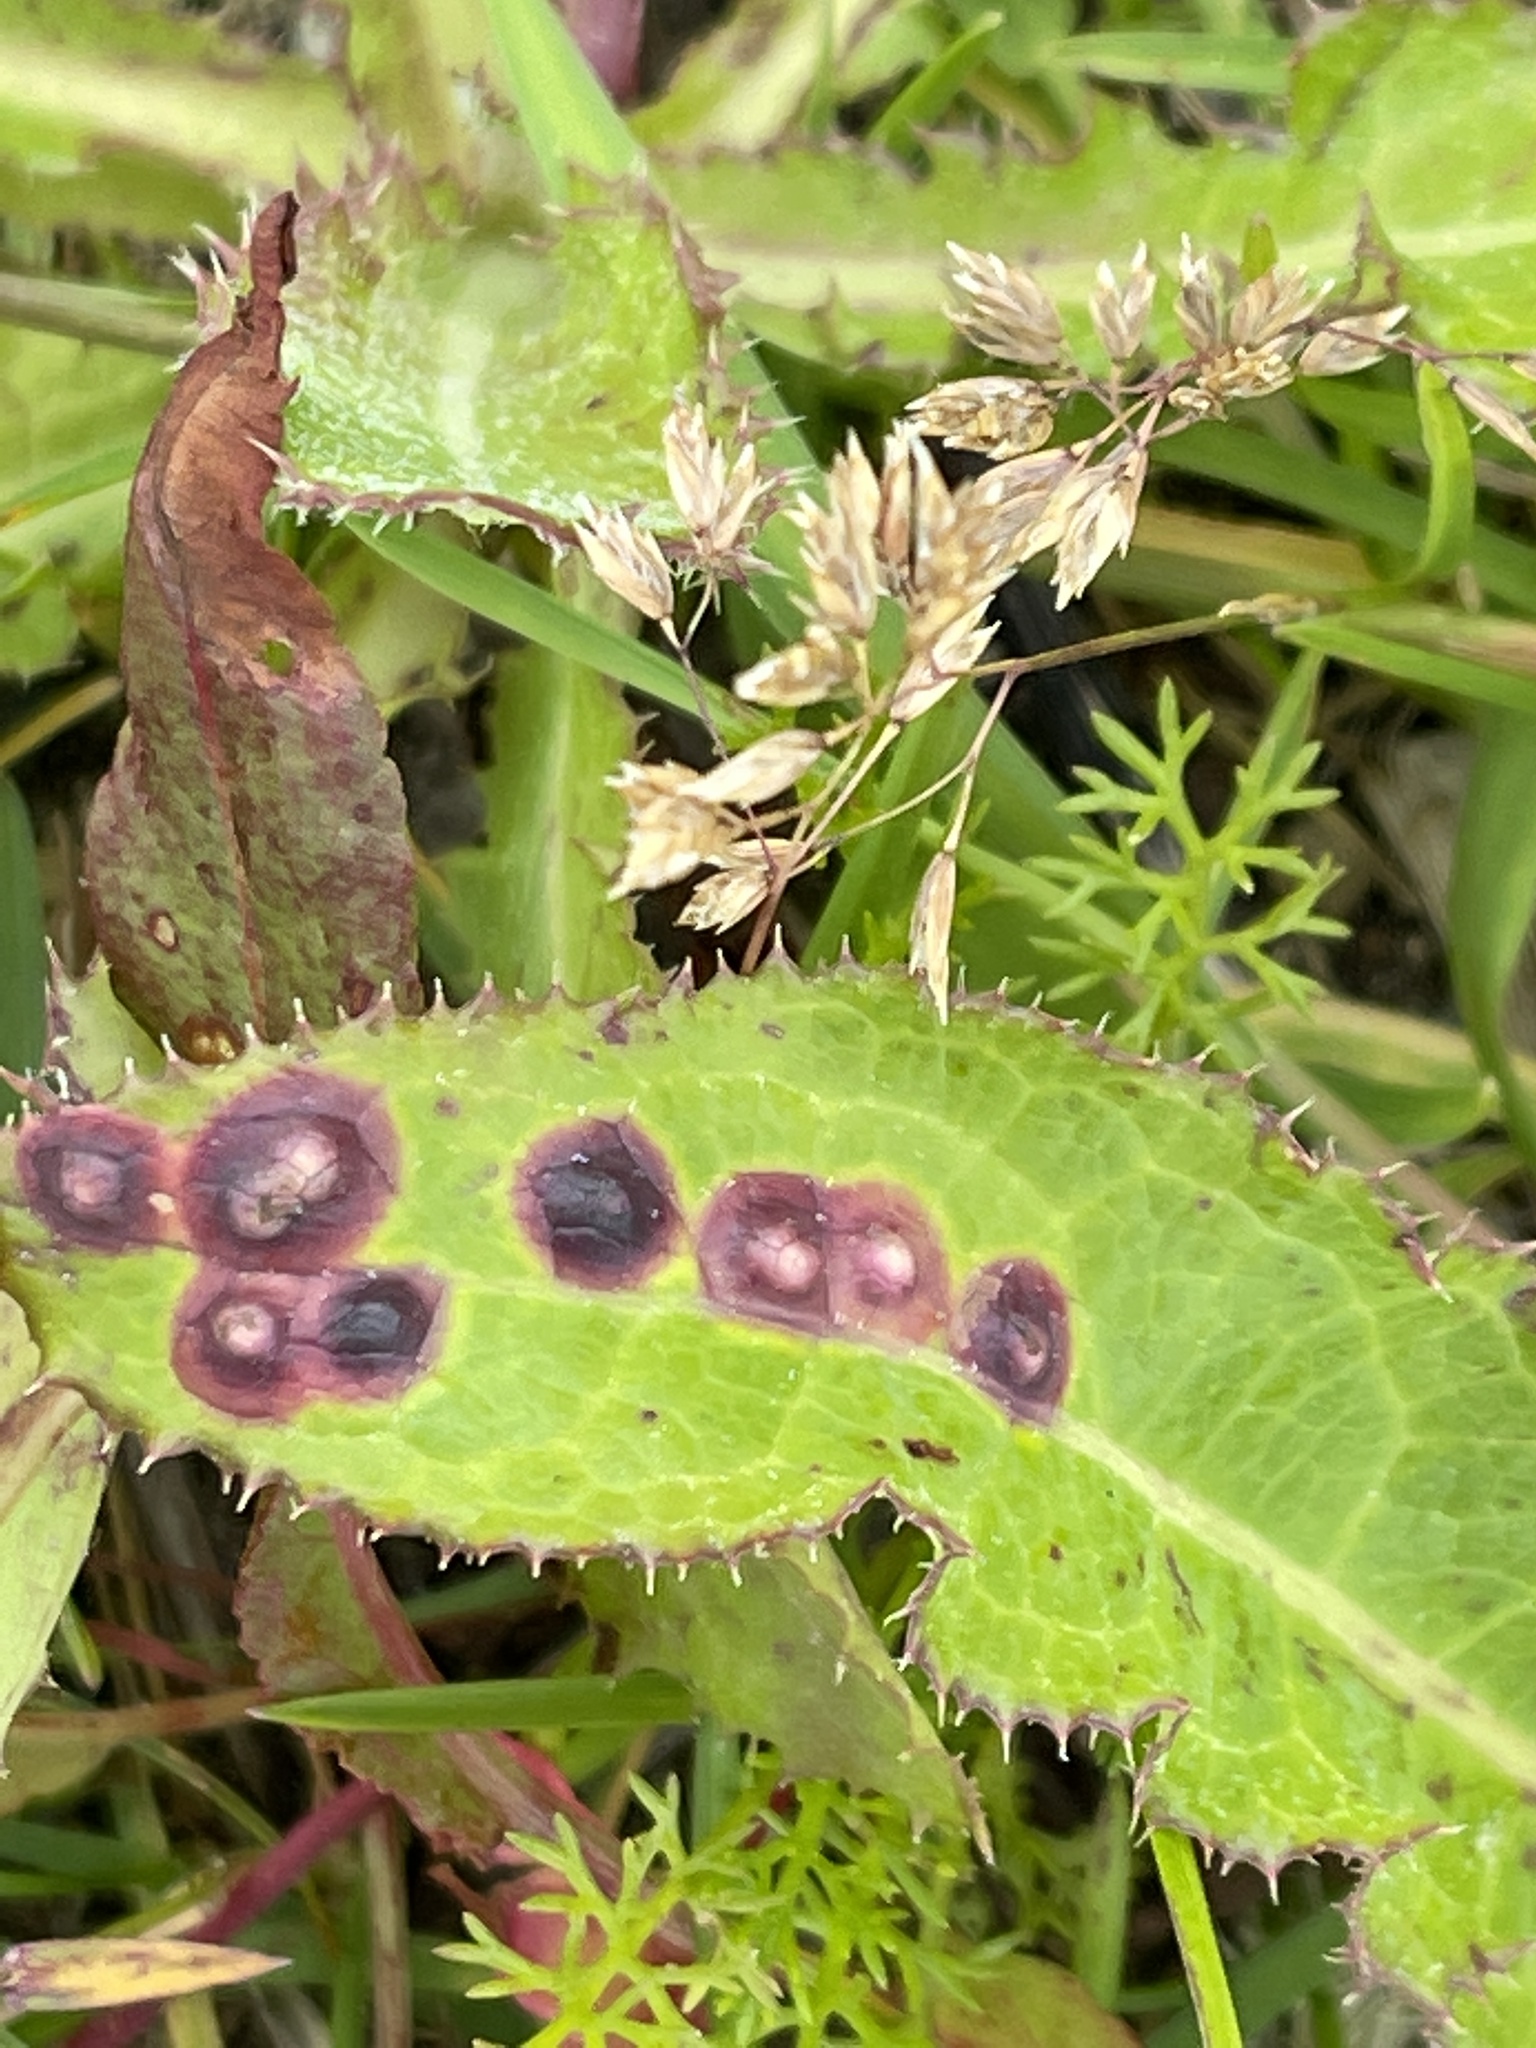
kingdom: Animalia
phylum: Arthropoda
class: Insecta
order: Diptera
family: Cecidomyiidae
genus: Cystiphora
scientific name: Cystiphora sonchi
